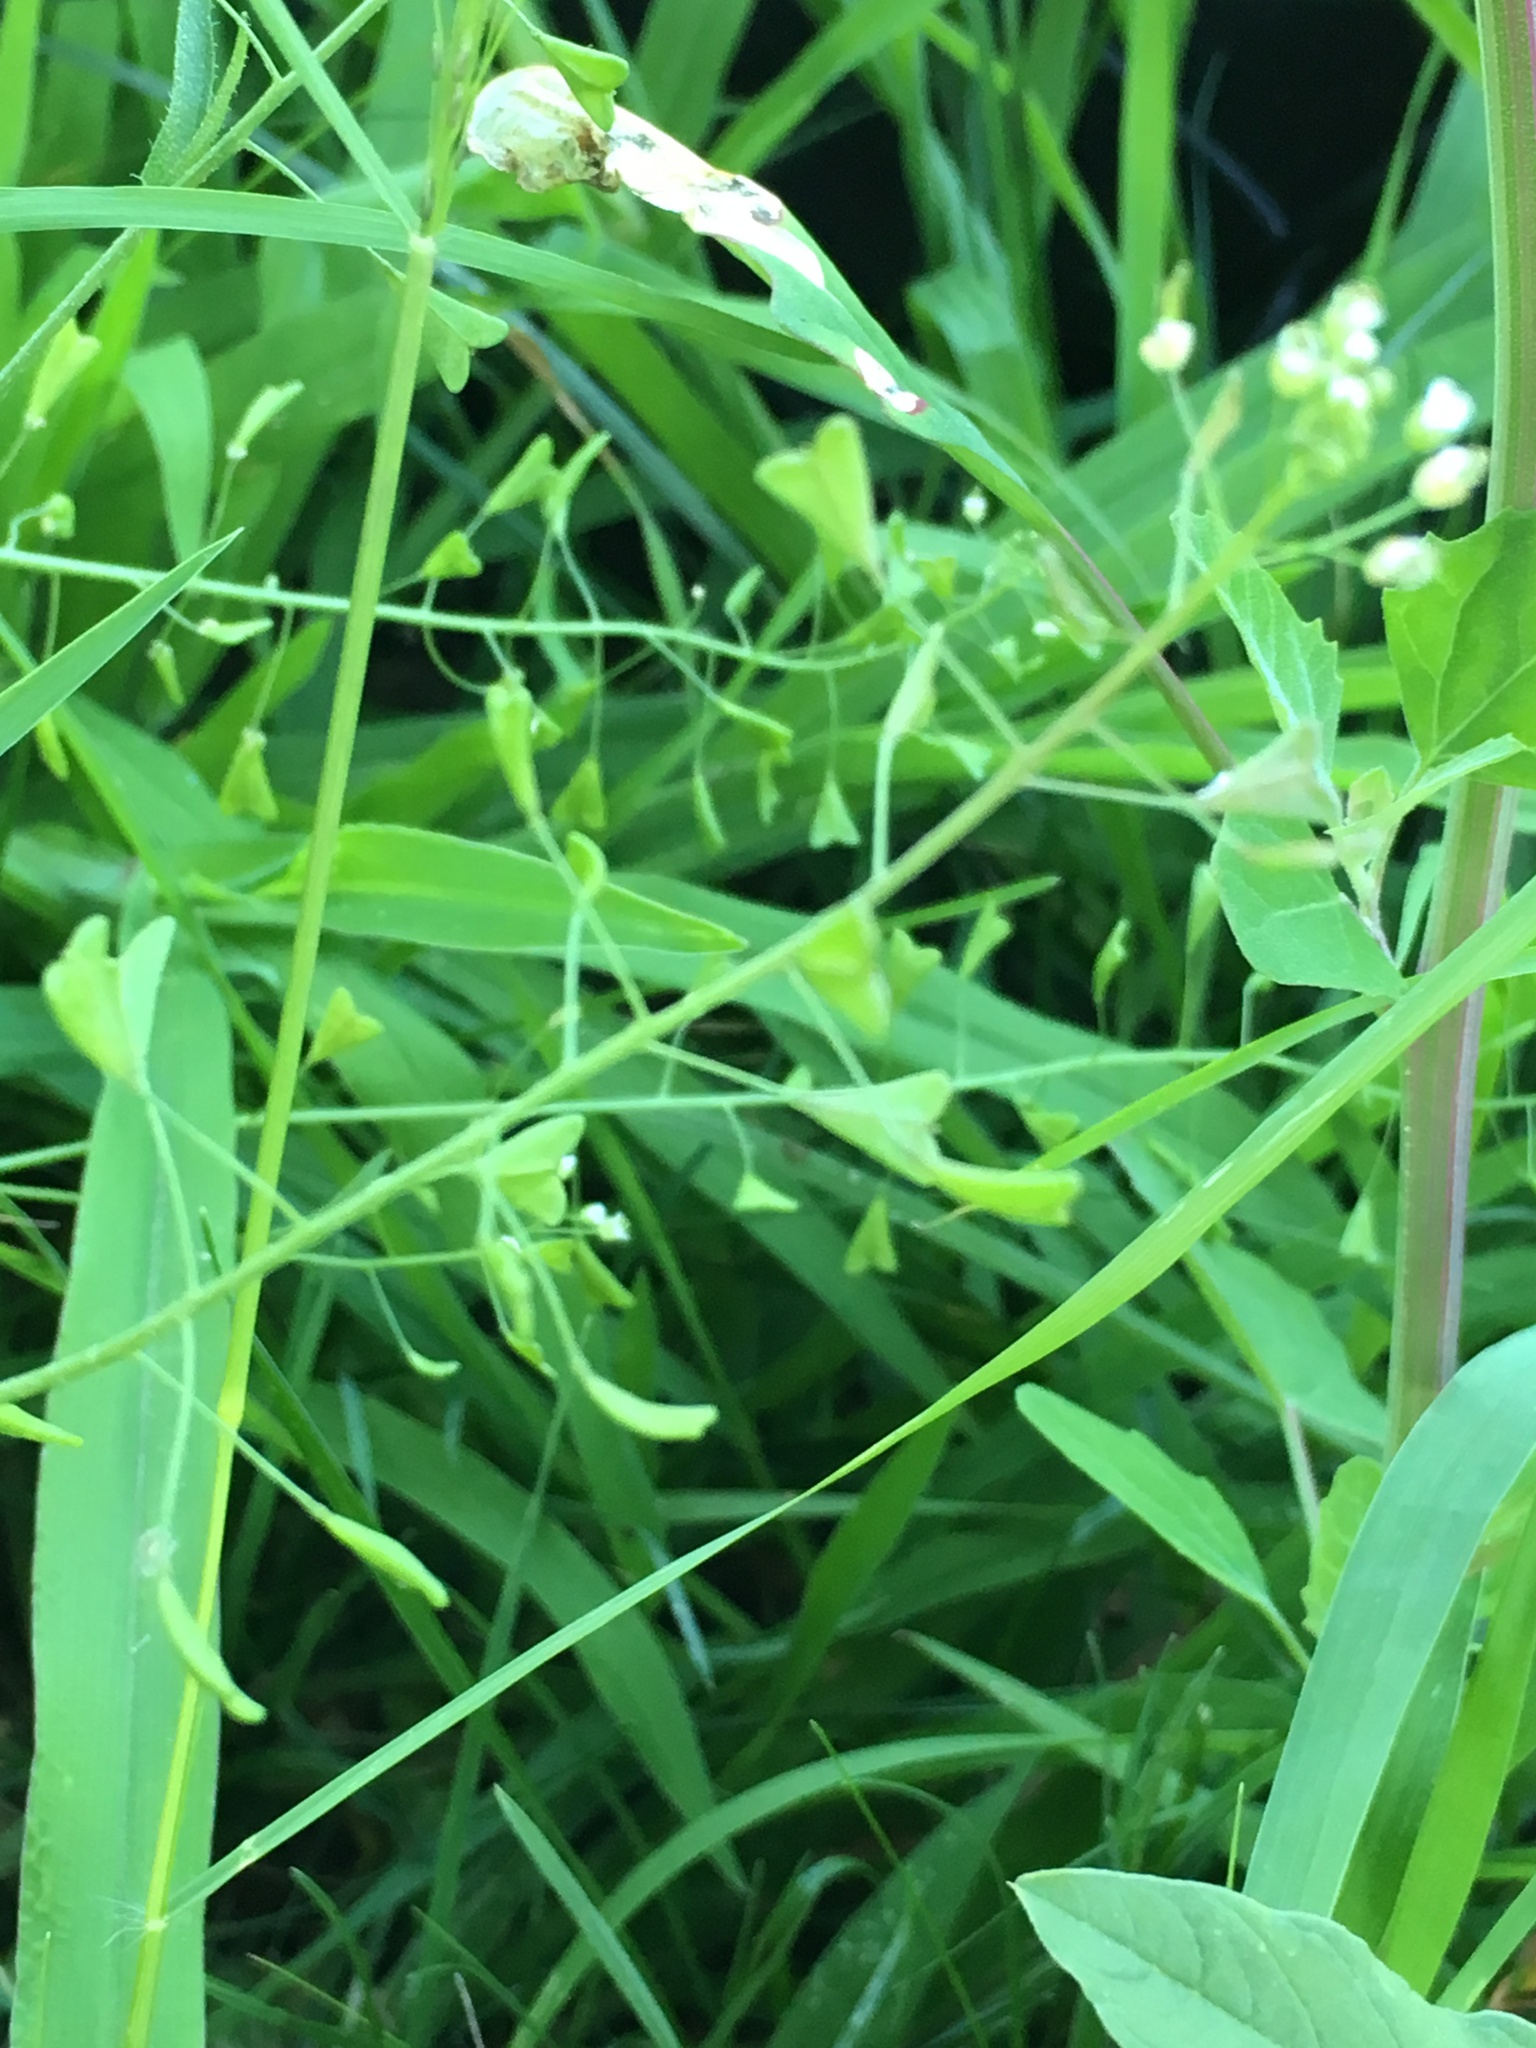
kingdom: Plantae
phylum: Tracheophyta
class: Magnoliopsida
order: Brassicales
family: Brassicaceae
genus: Capsella
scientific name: Capsella bursa-pastoris
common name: Shepherd's purse
